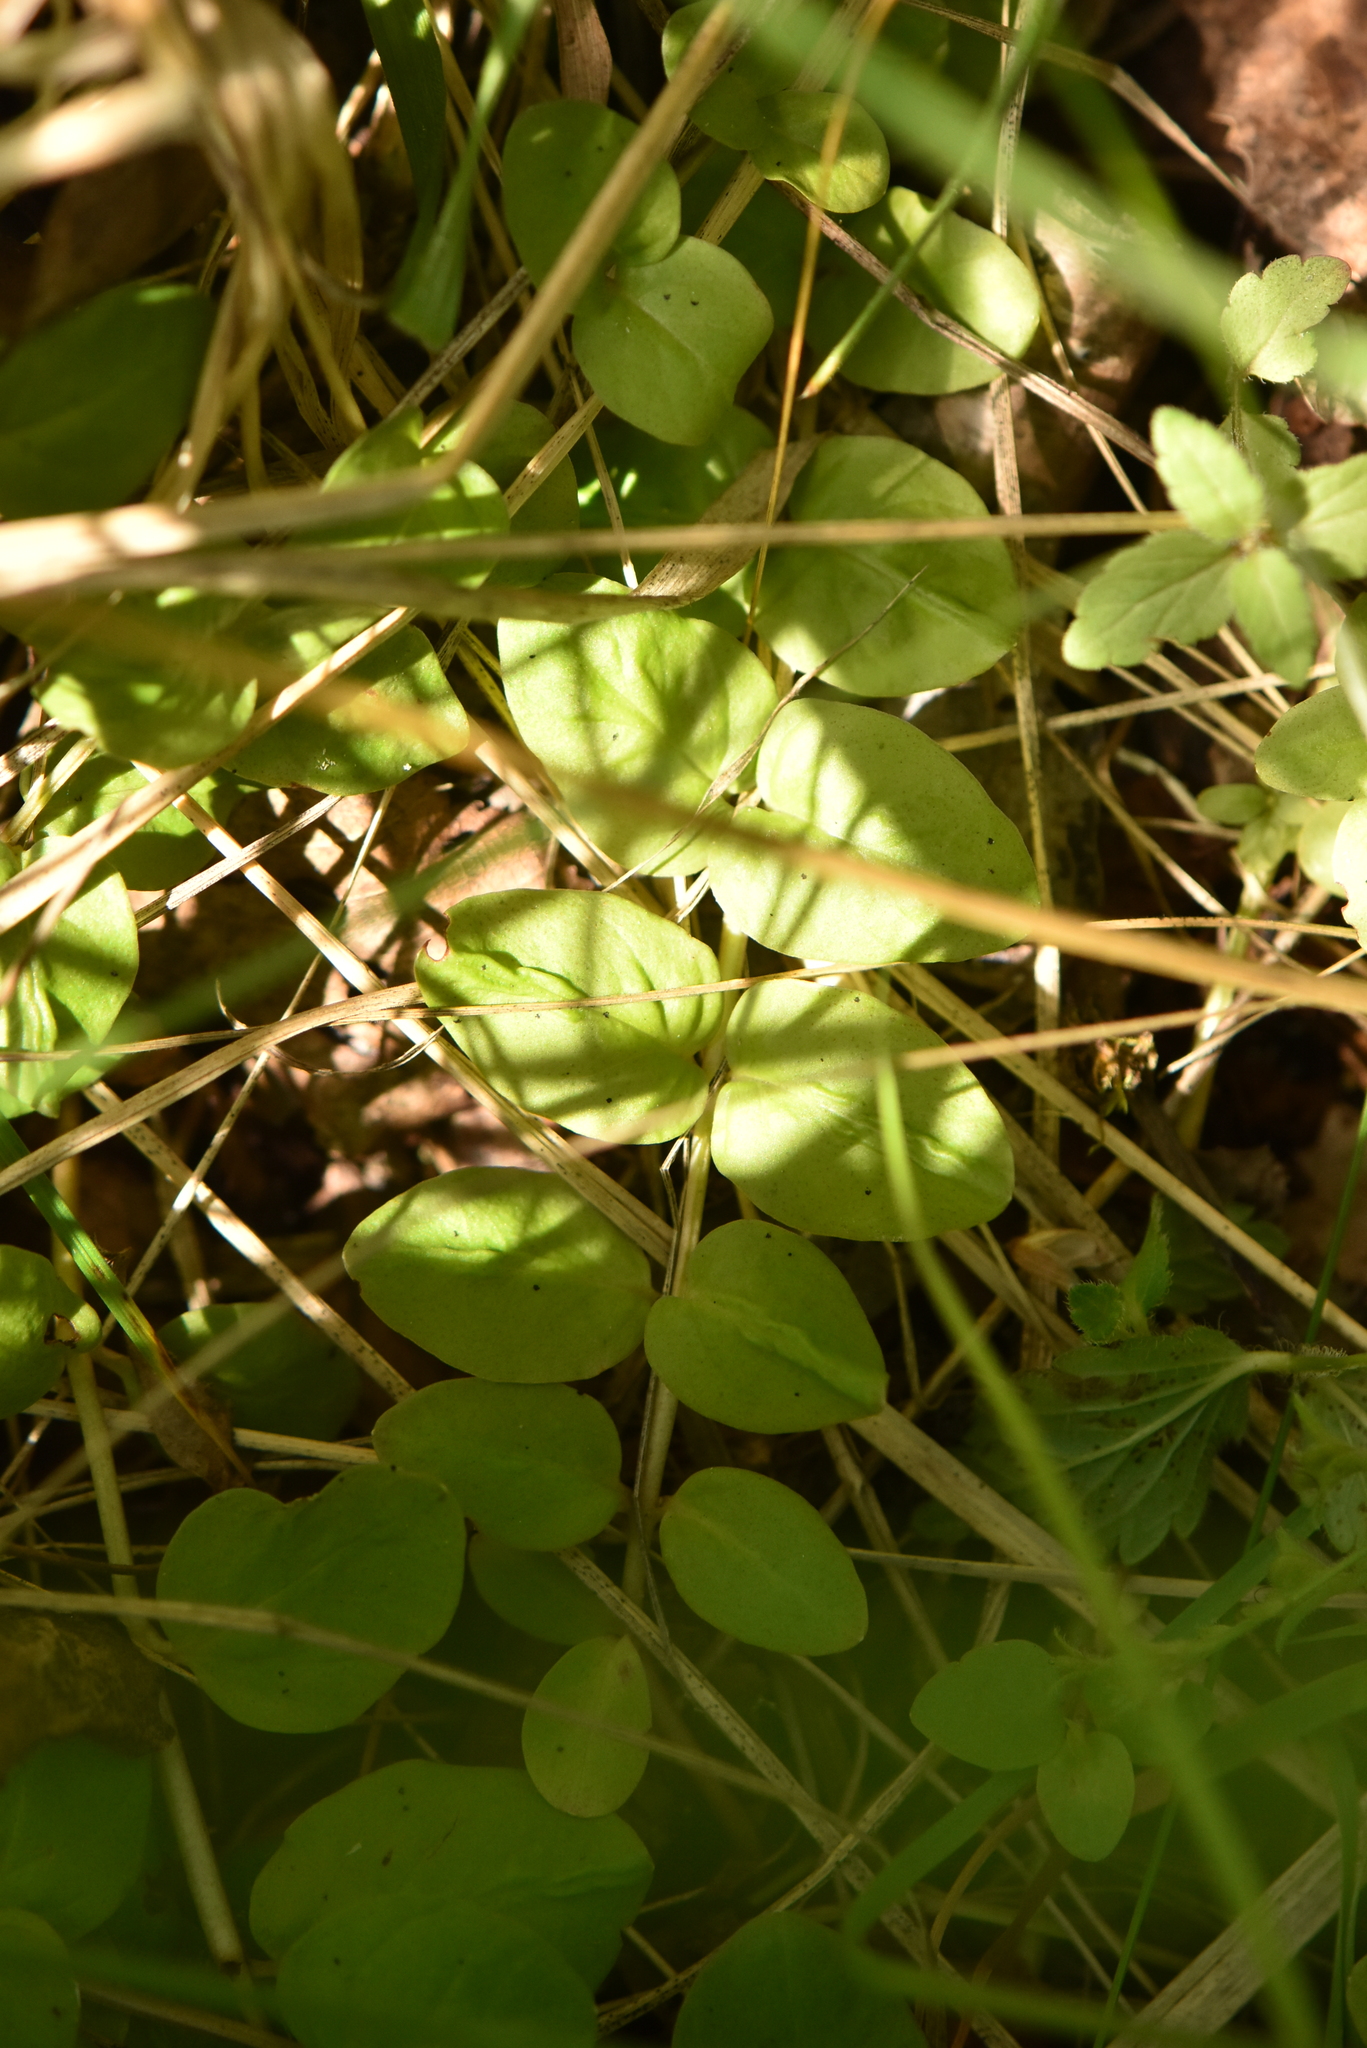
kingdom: Plantae
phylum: Tracheophyta
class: Magnoliopsida
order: Ericales
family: Primulaceae
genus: Lysimachia
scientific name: Lysimachia nummularia
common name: Moneywort
